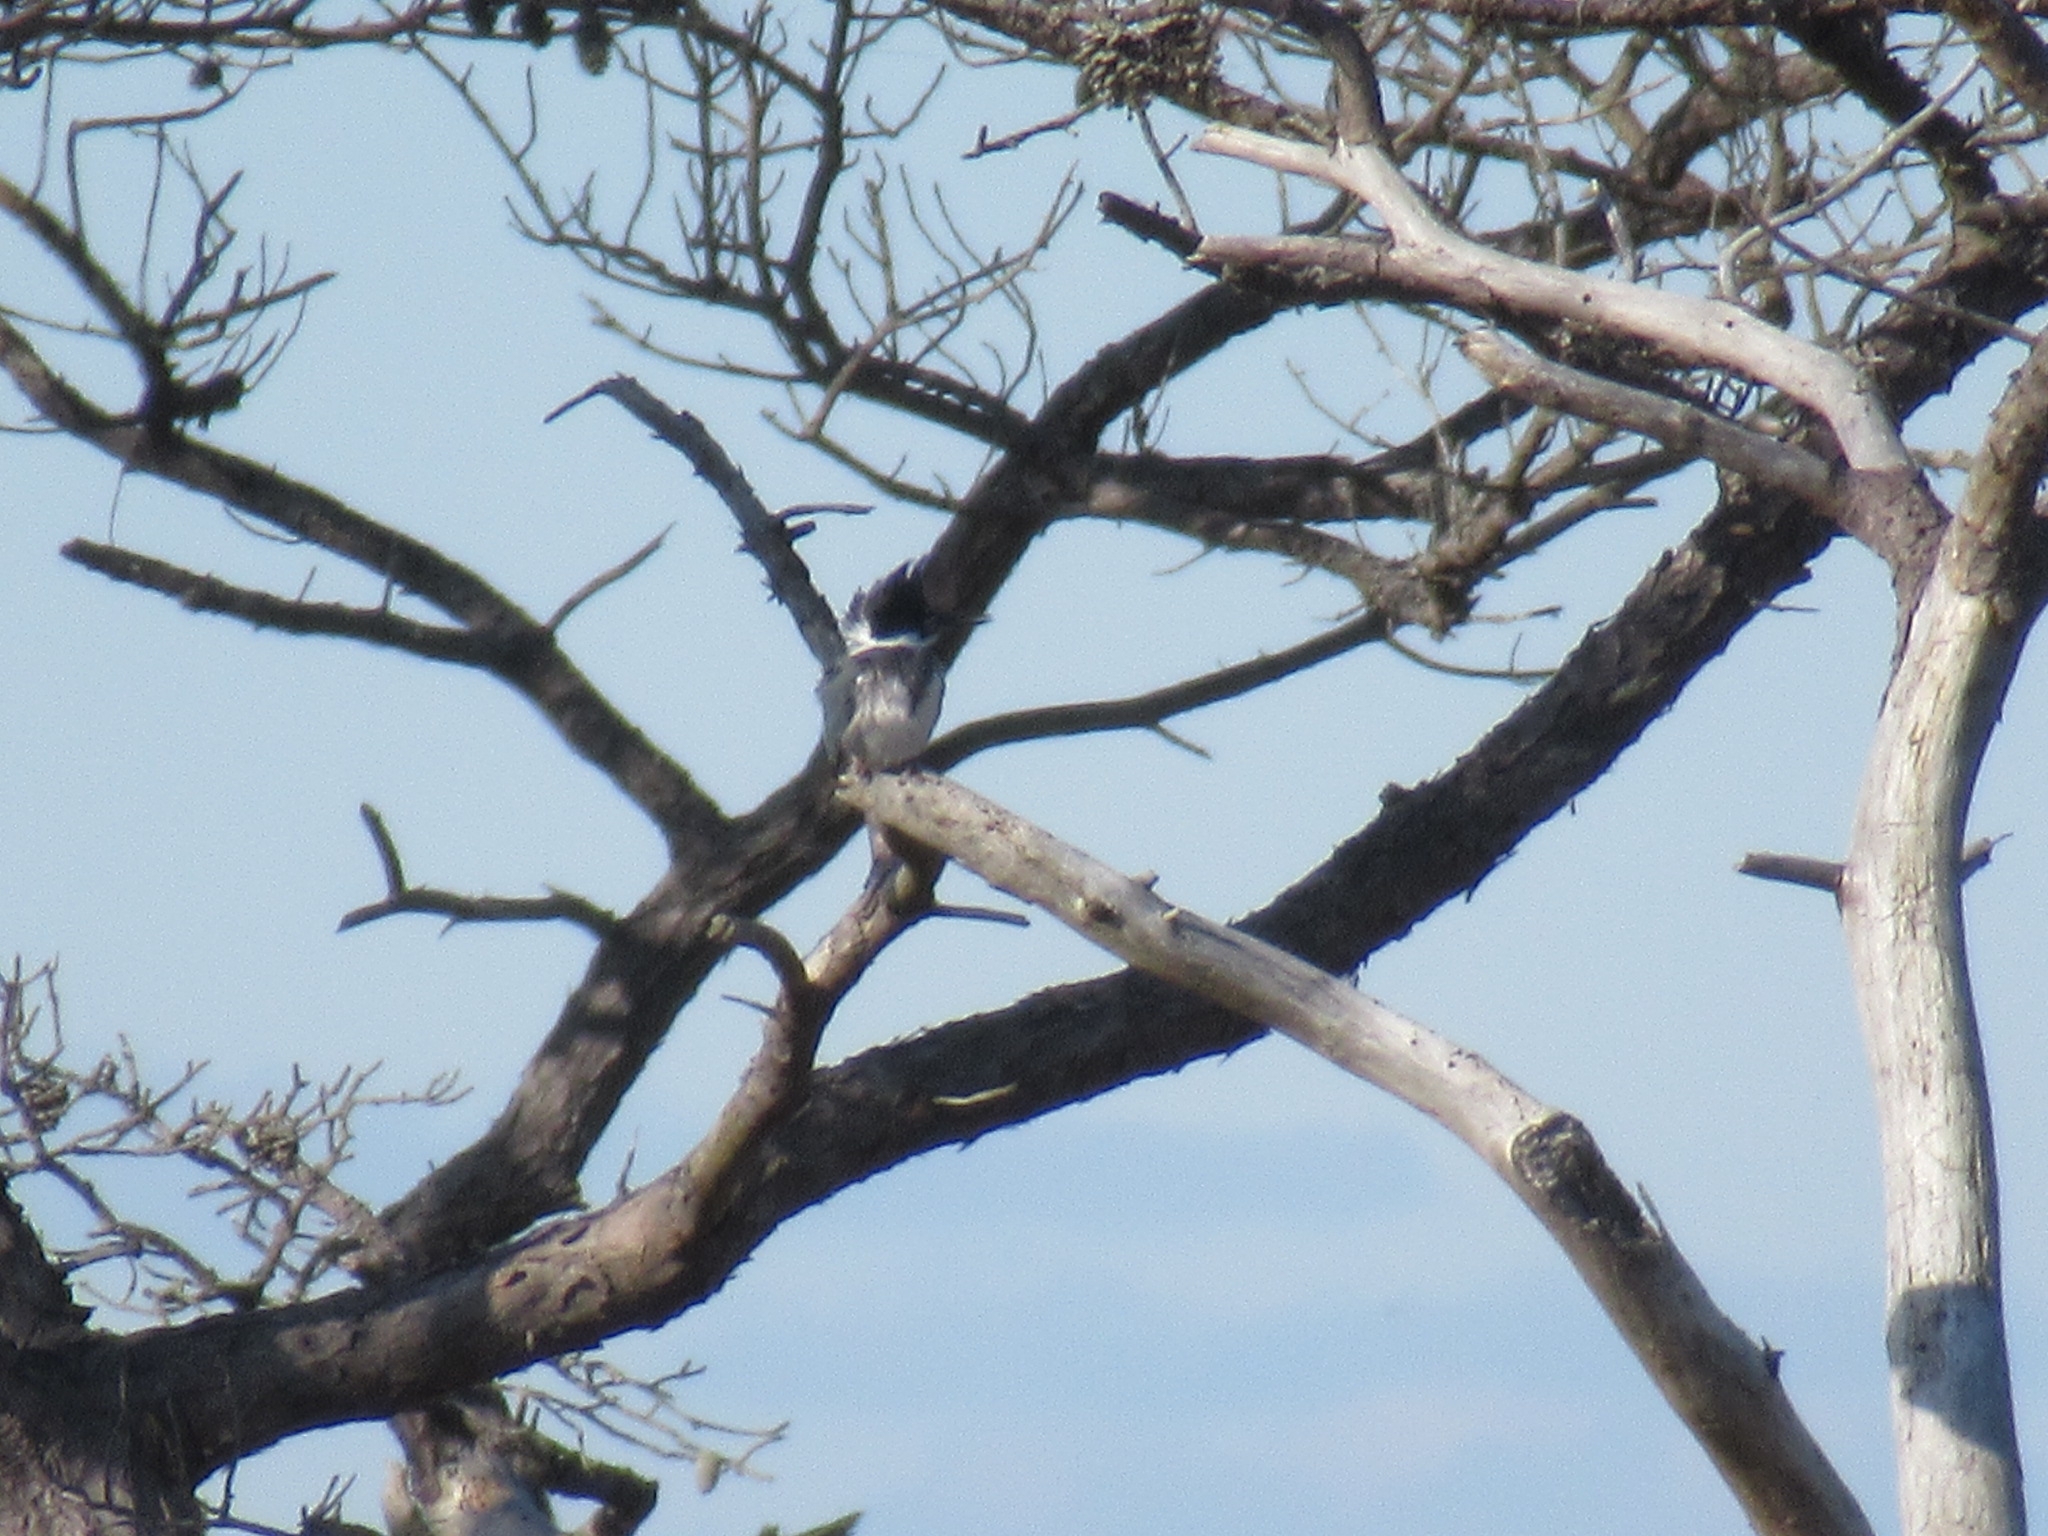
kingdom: Animalia
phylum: Chordata
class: Aves
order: Coraciiformes
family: Alcedinidae
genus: Megaceryle
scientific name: Megaceryle alcyon
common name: Belted kingfisher
